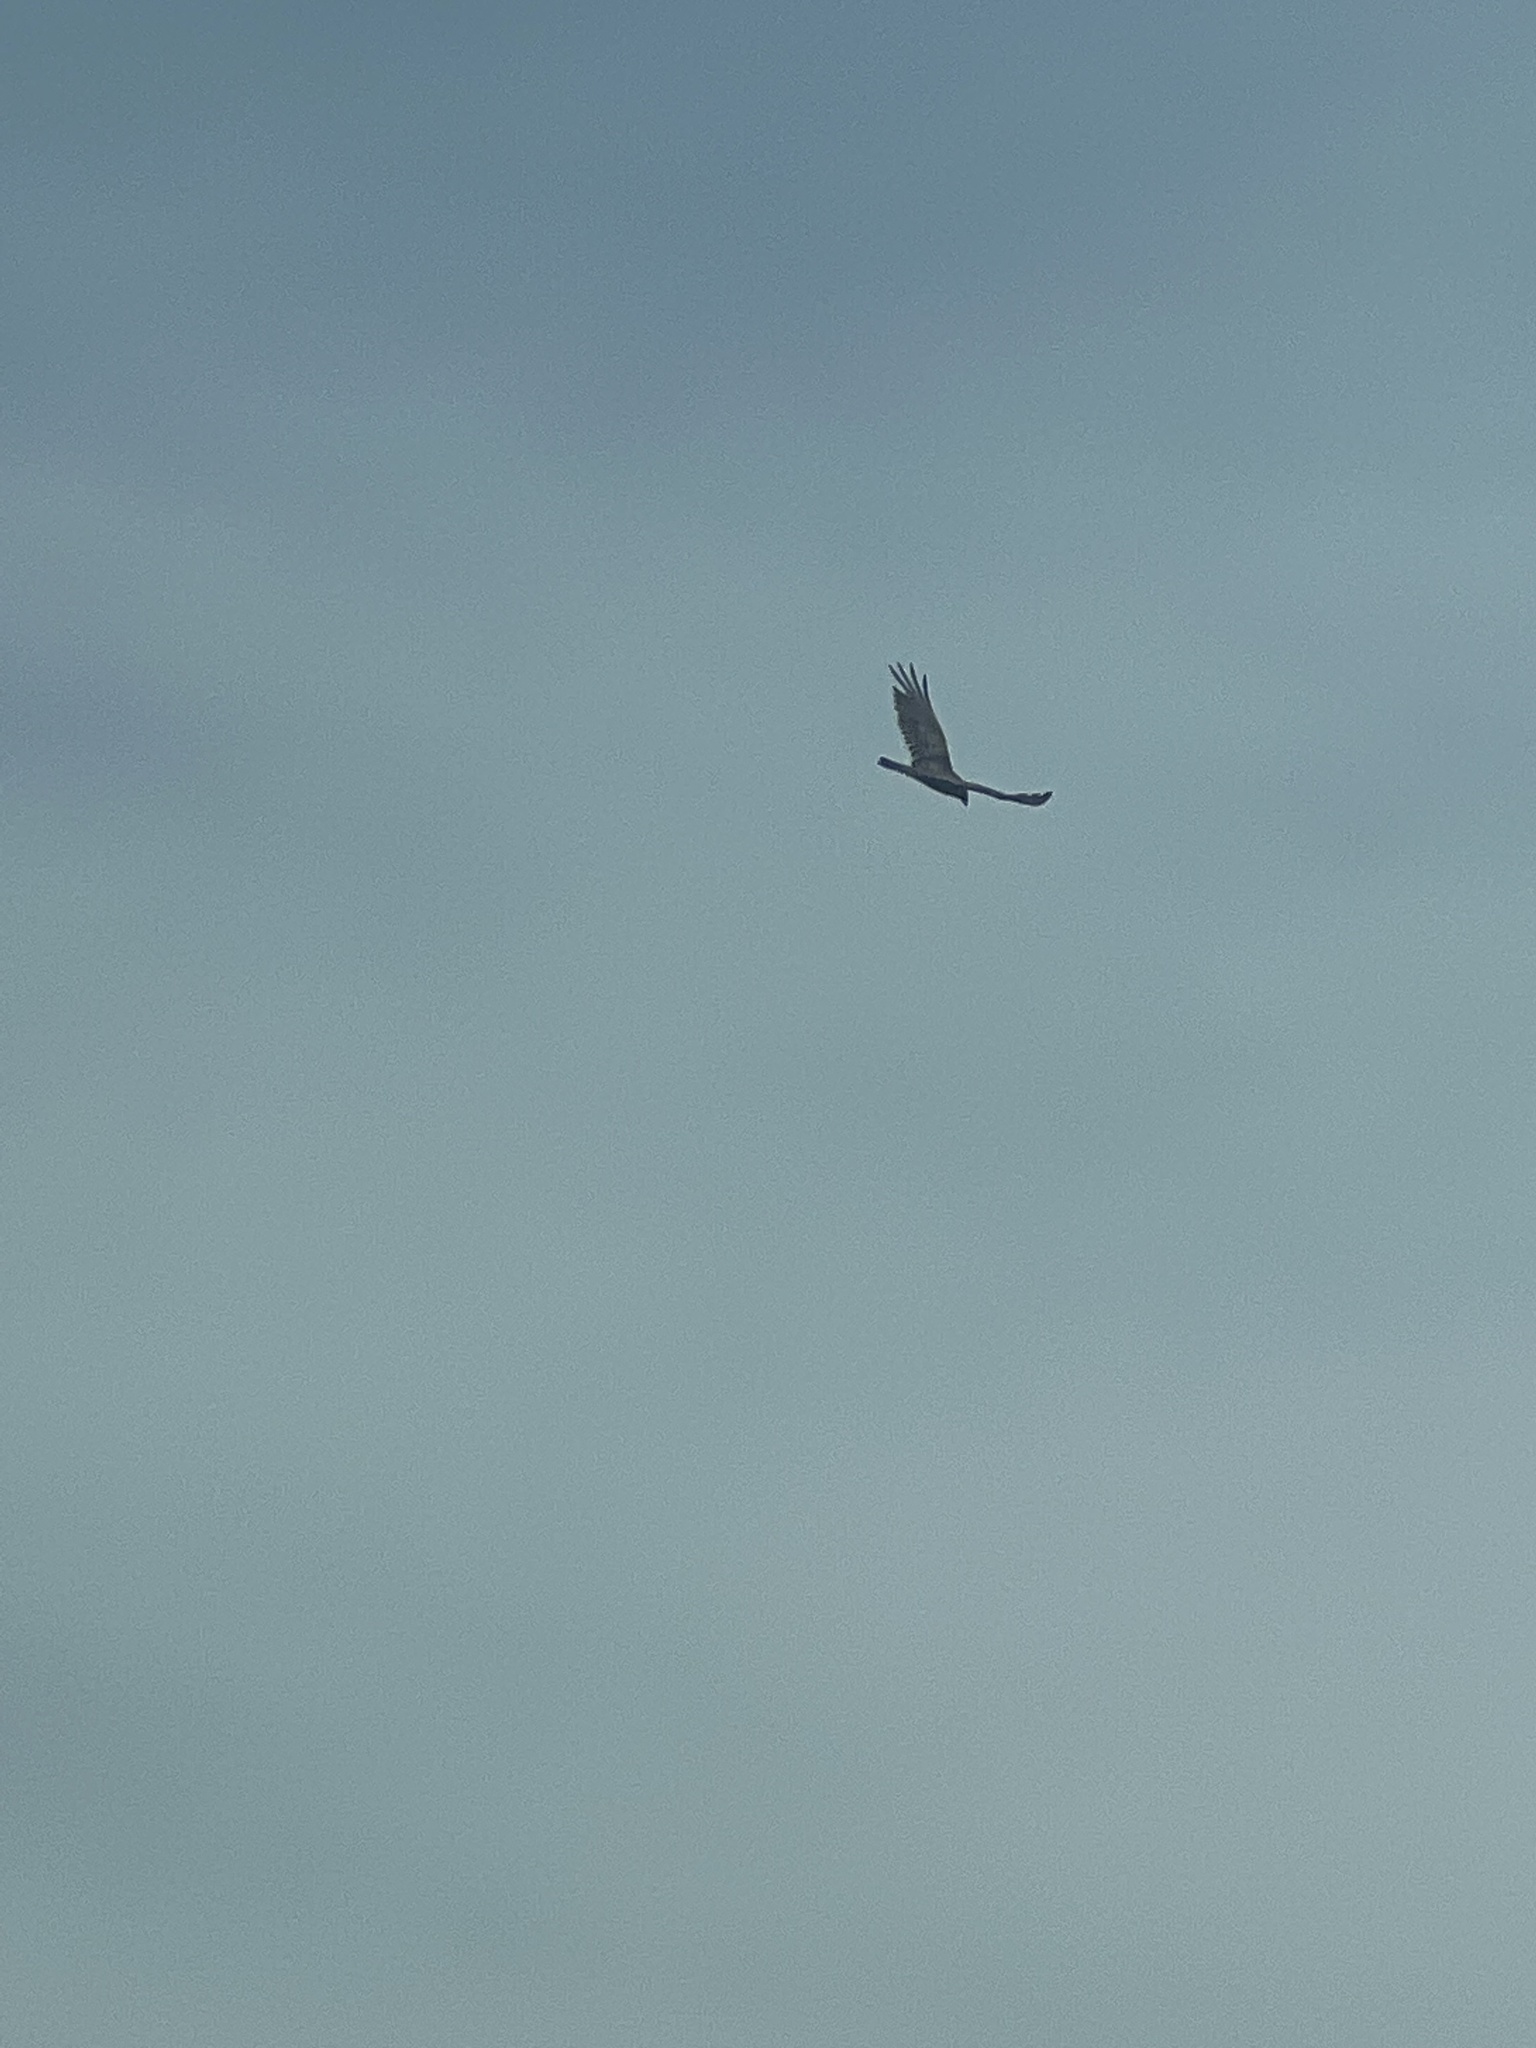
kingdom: Animalia
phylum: Chordata
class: Aves
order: Accipitriformes
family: Cathartidae
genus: Cathartes
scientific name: Cathartes aura
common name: Turkey vulture
